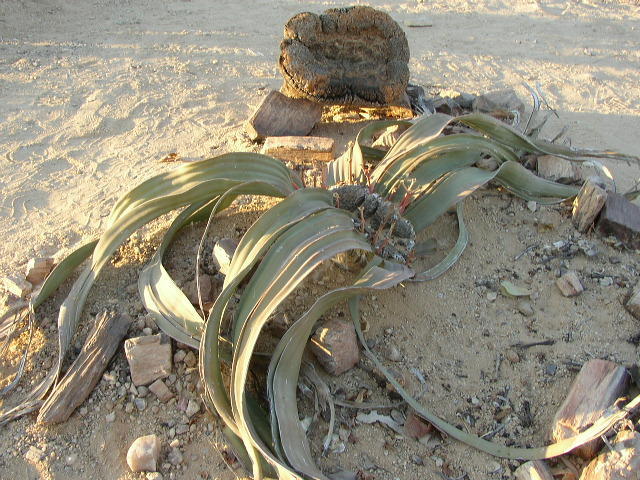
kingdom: Plantae
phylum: Tracheophyta
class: Gnetopsida
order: Welwitschiales
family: Welwitschiaceae
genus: Welwitschia
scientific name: Welwitschia mirabilis
